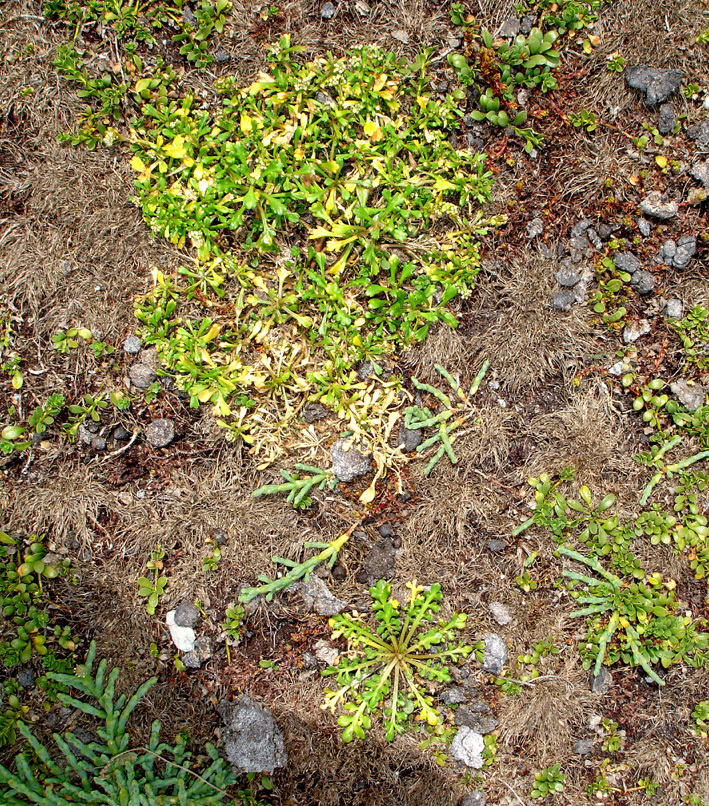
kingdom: Plantae
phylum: Tracheophyta
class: Magnoliopsida
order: Brassicales
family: Brassicaceae
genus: Lepidium
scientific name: Lepidium flexicaule
